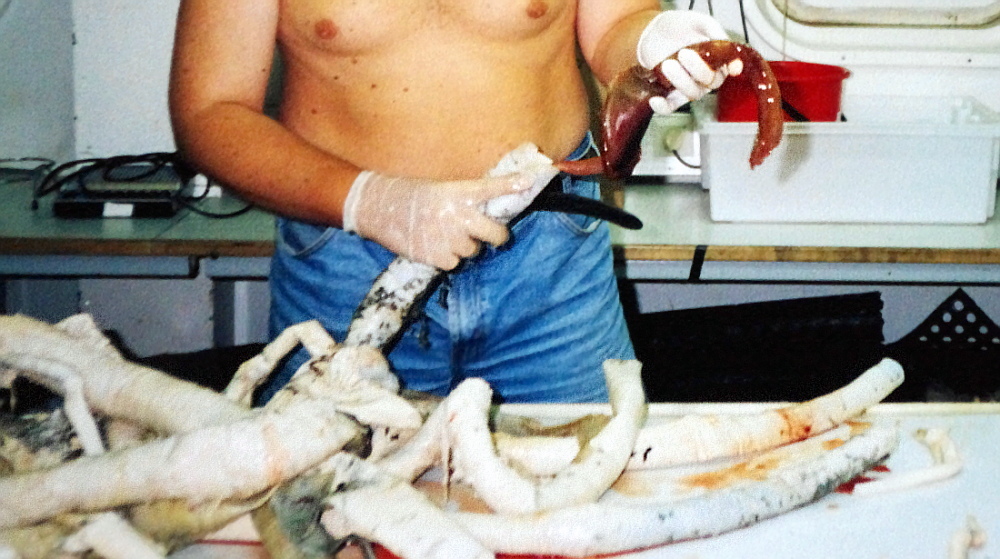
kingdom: Animalia
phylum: Annelida
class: Polychaeta
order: Sabellida
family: Siboglinidae
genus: Riftia
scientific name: Riftia pachyptila
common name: Giant tube worm
